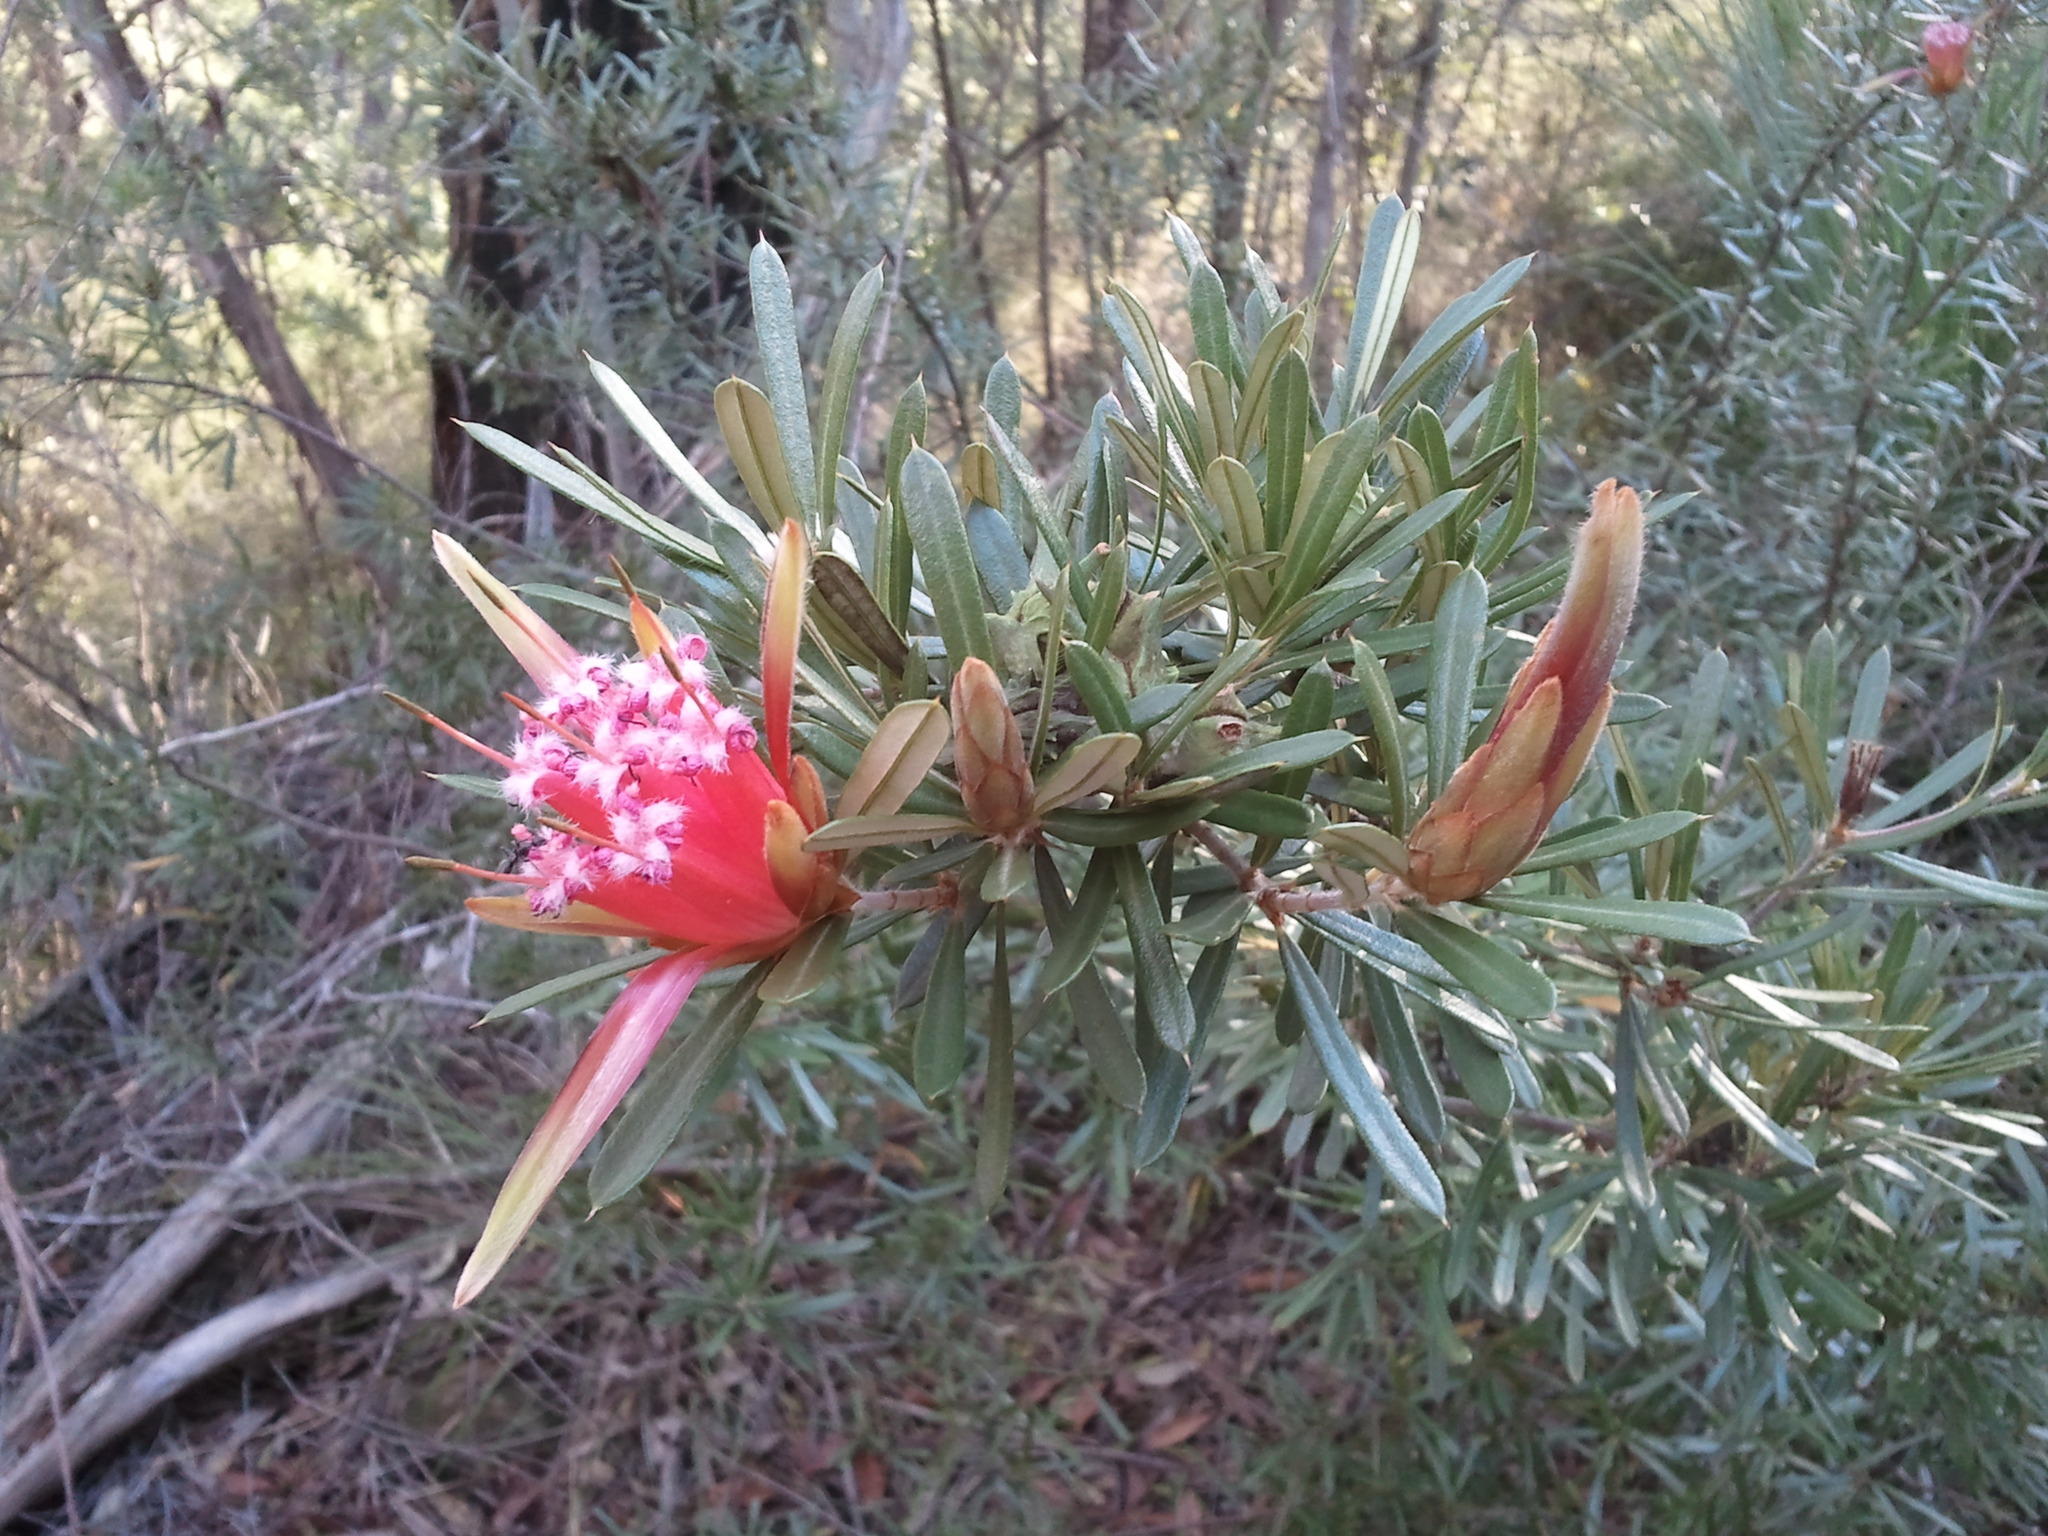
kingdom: Plantae
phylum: Tracheophyta
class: Magnoliopsida
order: Proteales
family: Proteaceae
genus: Lambertia
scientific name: Lambertia formosa
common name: Mountain-devil
